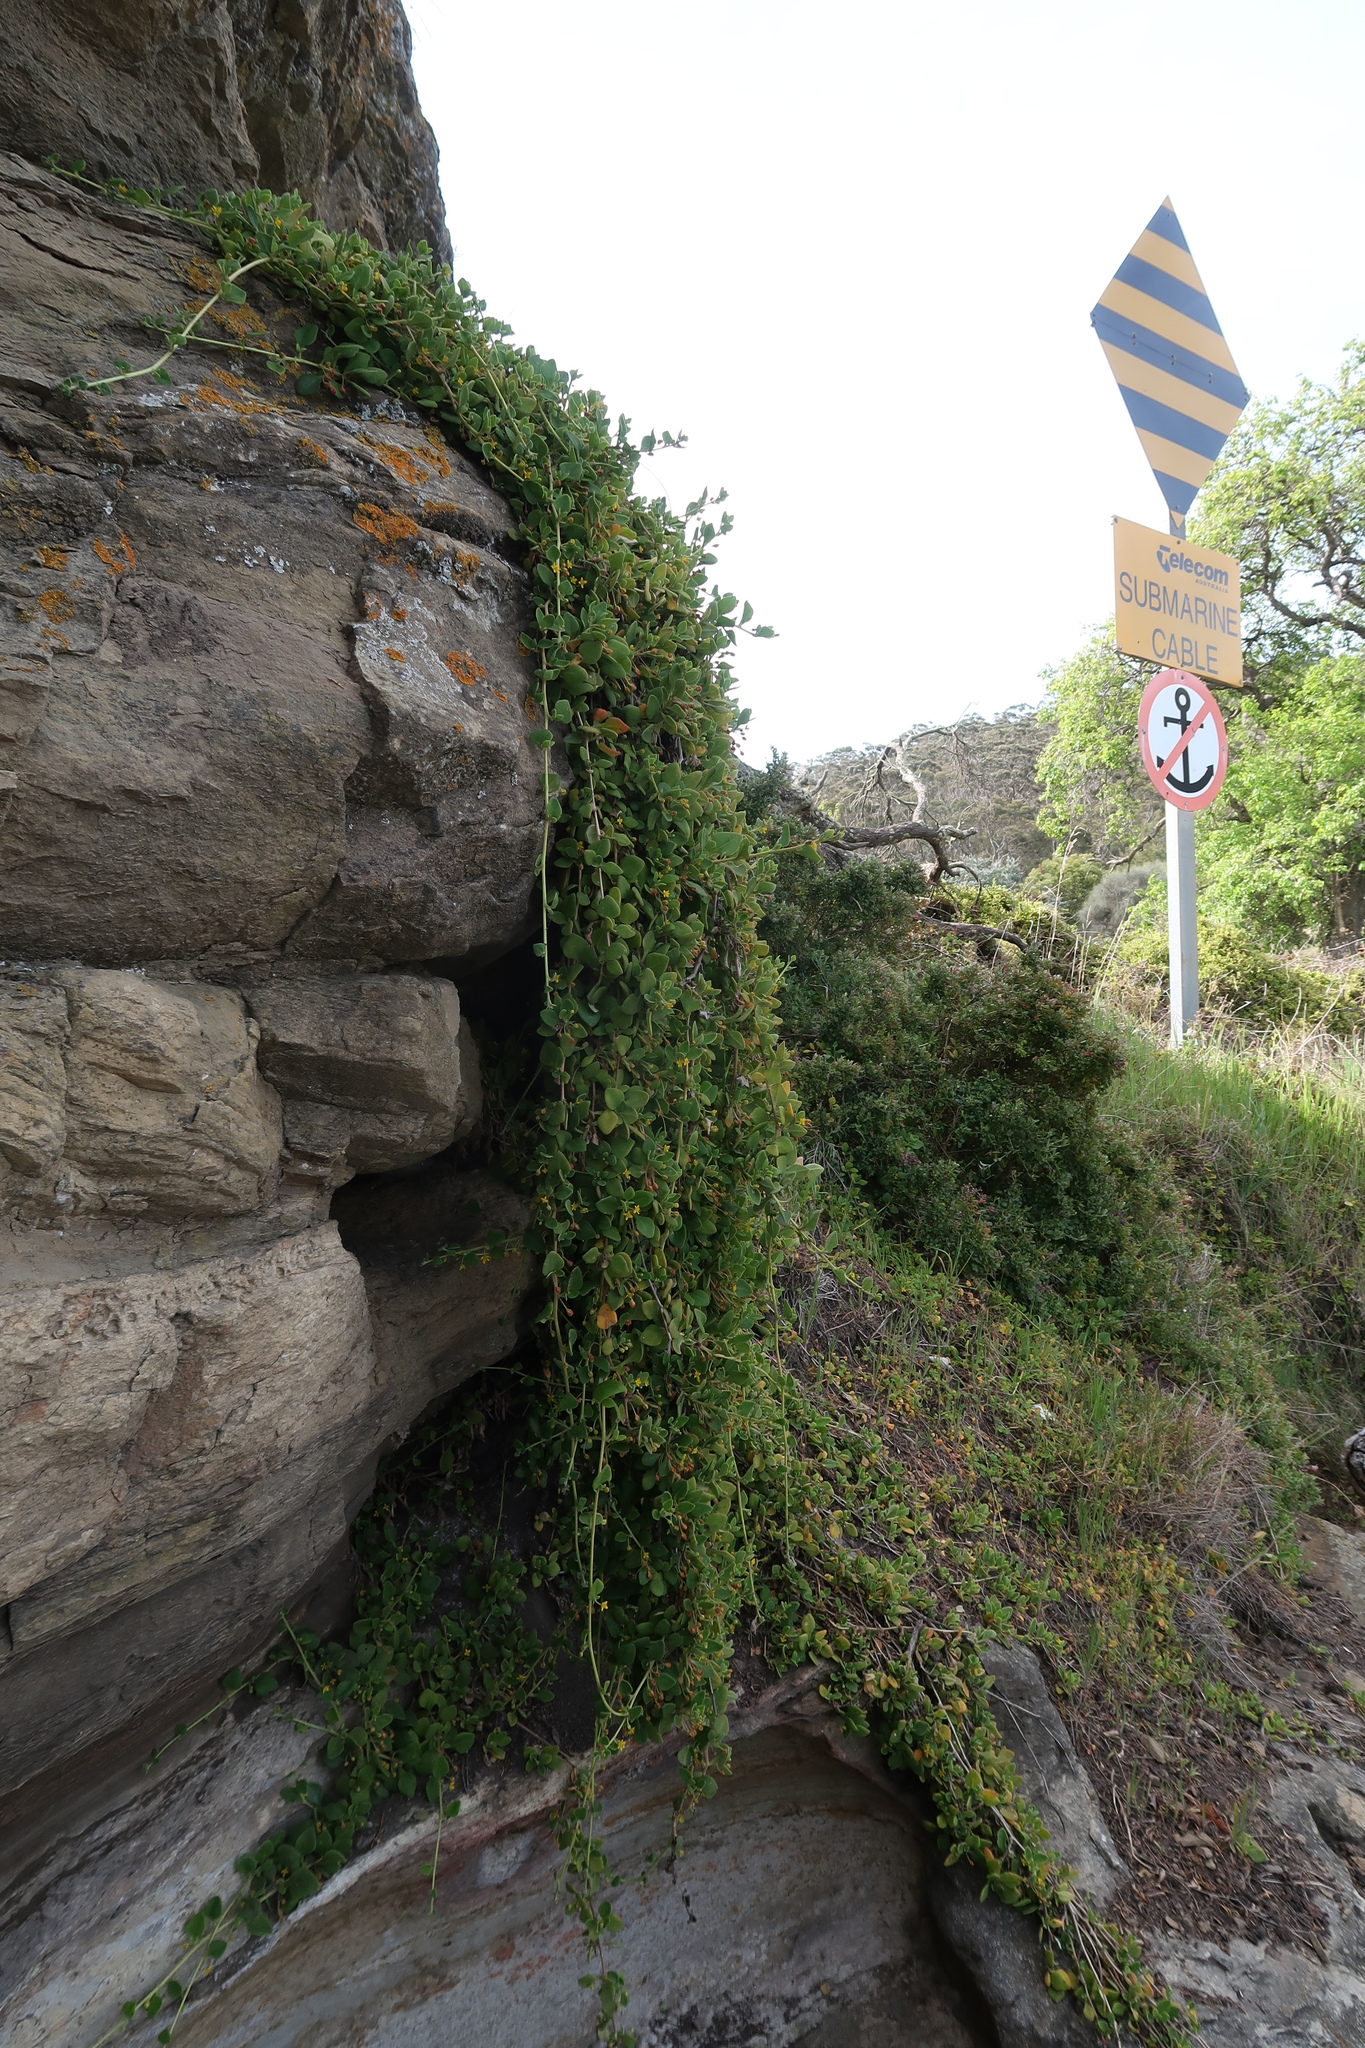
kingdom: Plantae
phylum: Tracheophyta
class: Magnoliopsida
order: Caryophyllales
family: Aizoaceae
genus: Tetragonia
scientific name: Tetragonia implexicoma
